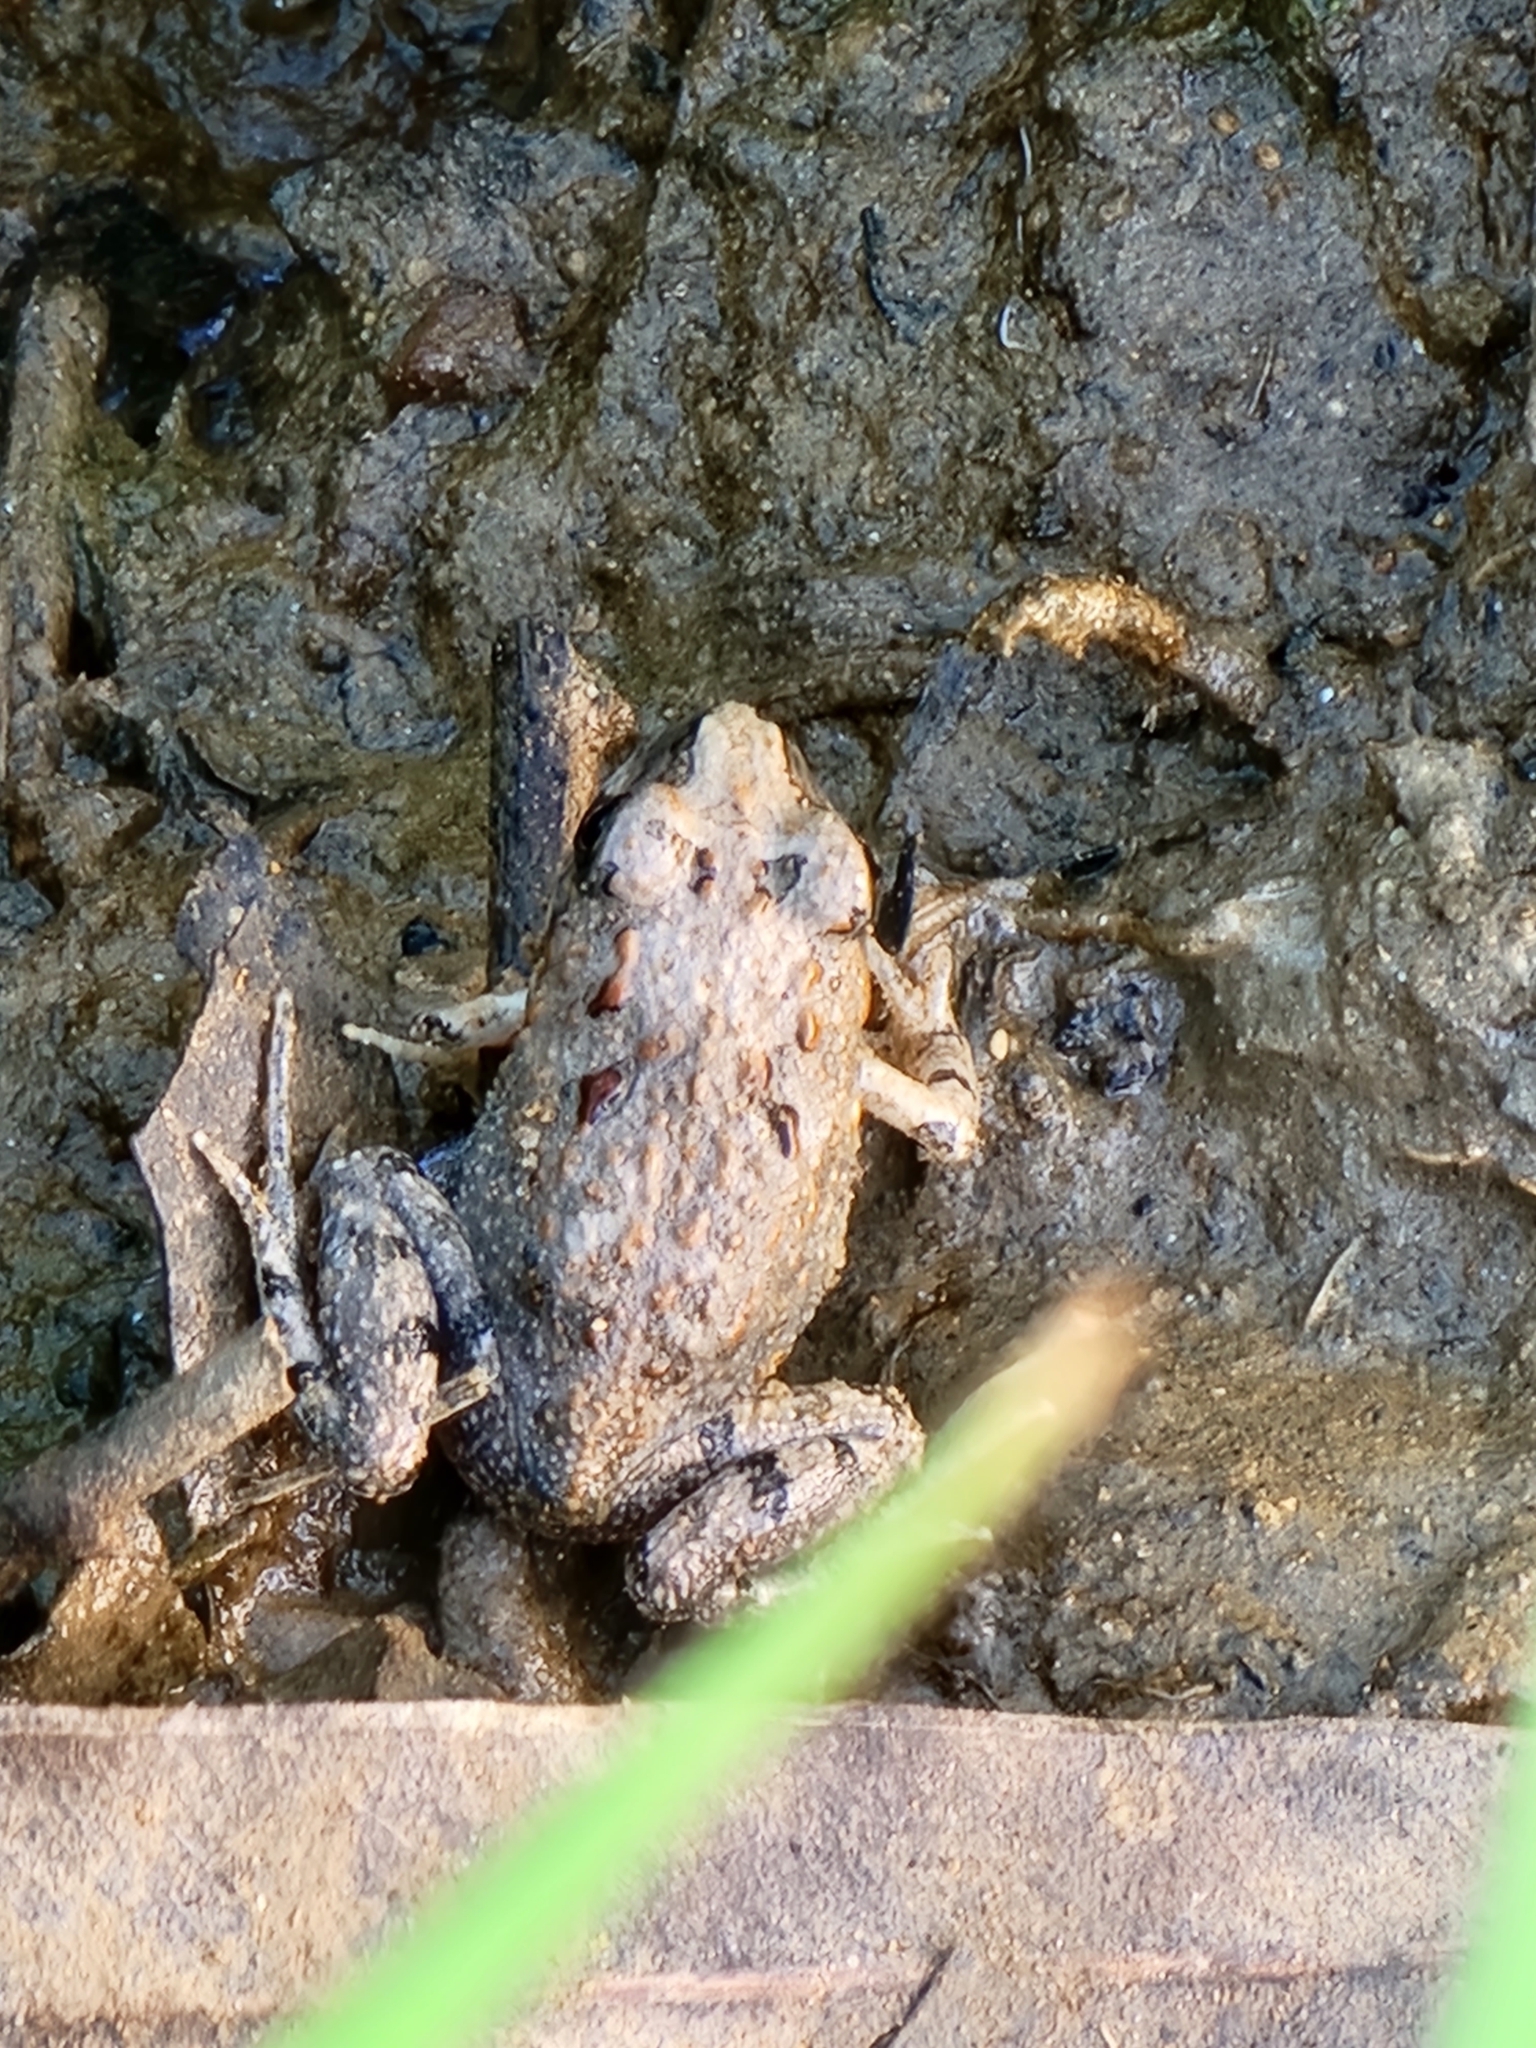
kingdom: Animalia
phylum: Chordata
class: Amphibia
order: Anura
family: Limnodynastidae
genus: Platyplectrum
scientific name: Platyplectrum ornatum
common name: Ornate burrowing frog
